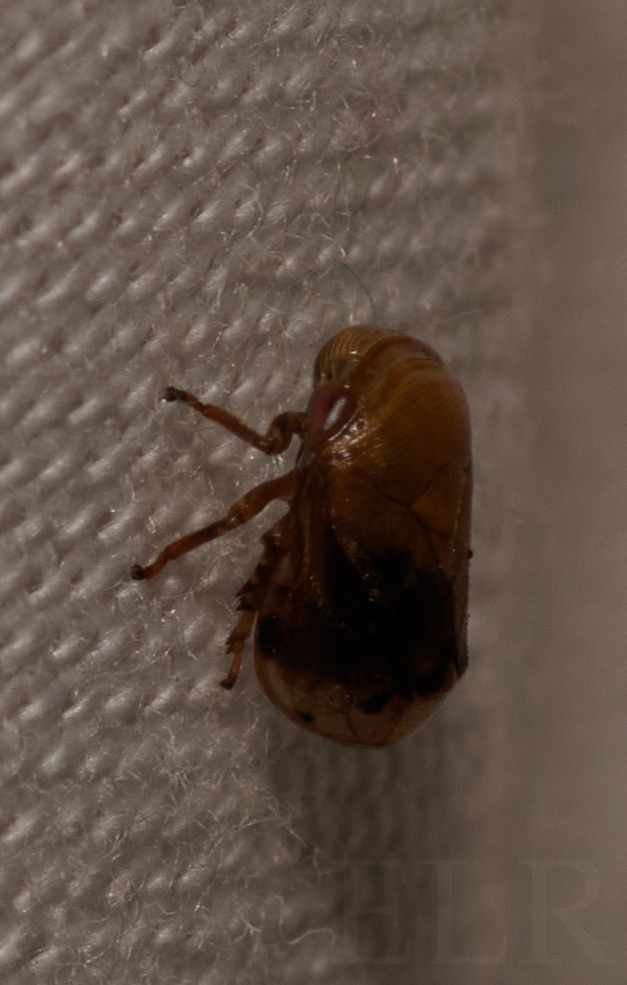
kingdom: Animalia
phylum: Arthropoda
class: Insecta
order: Hemiptera
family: Clastopteridae
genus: Clastoptera
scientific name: Clastoptera achatina
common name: Pecan spittlebug
